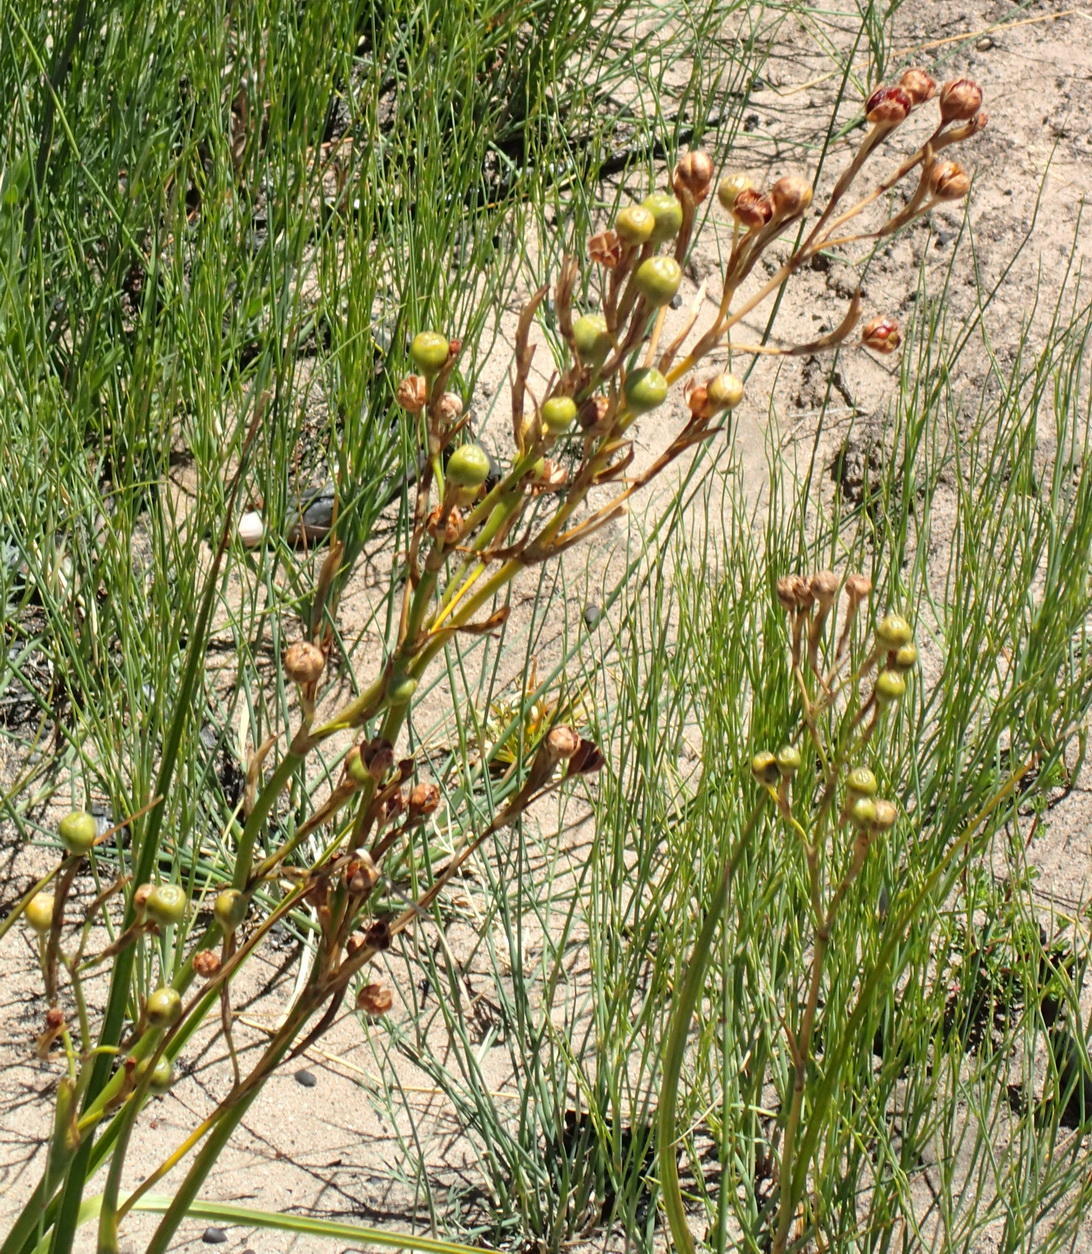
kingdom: Plantae
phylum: Tracheophyta
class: Liliopsida
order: Asparagales
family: Iridaceae
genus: Moraea
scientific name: Moraea ramosissima
